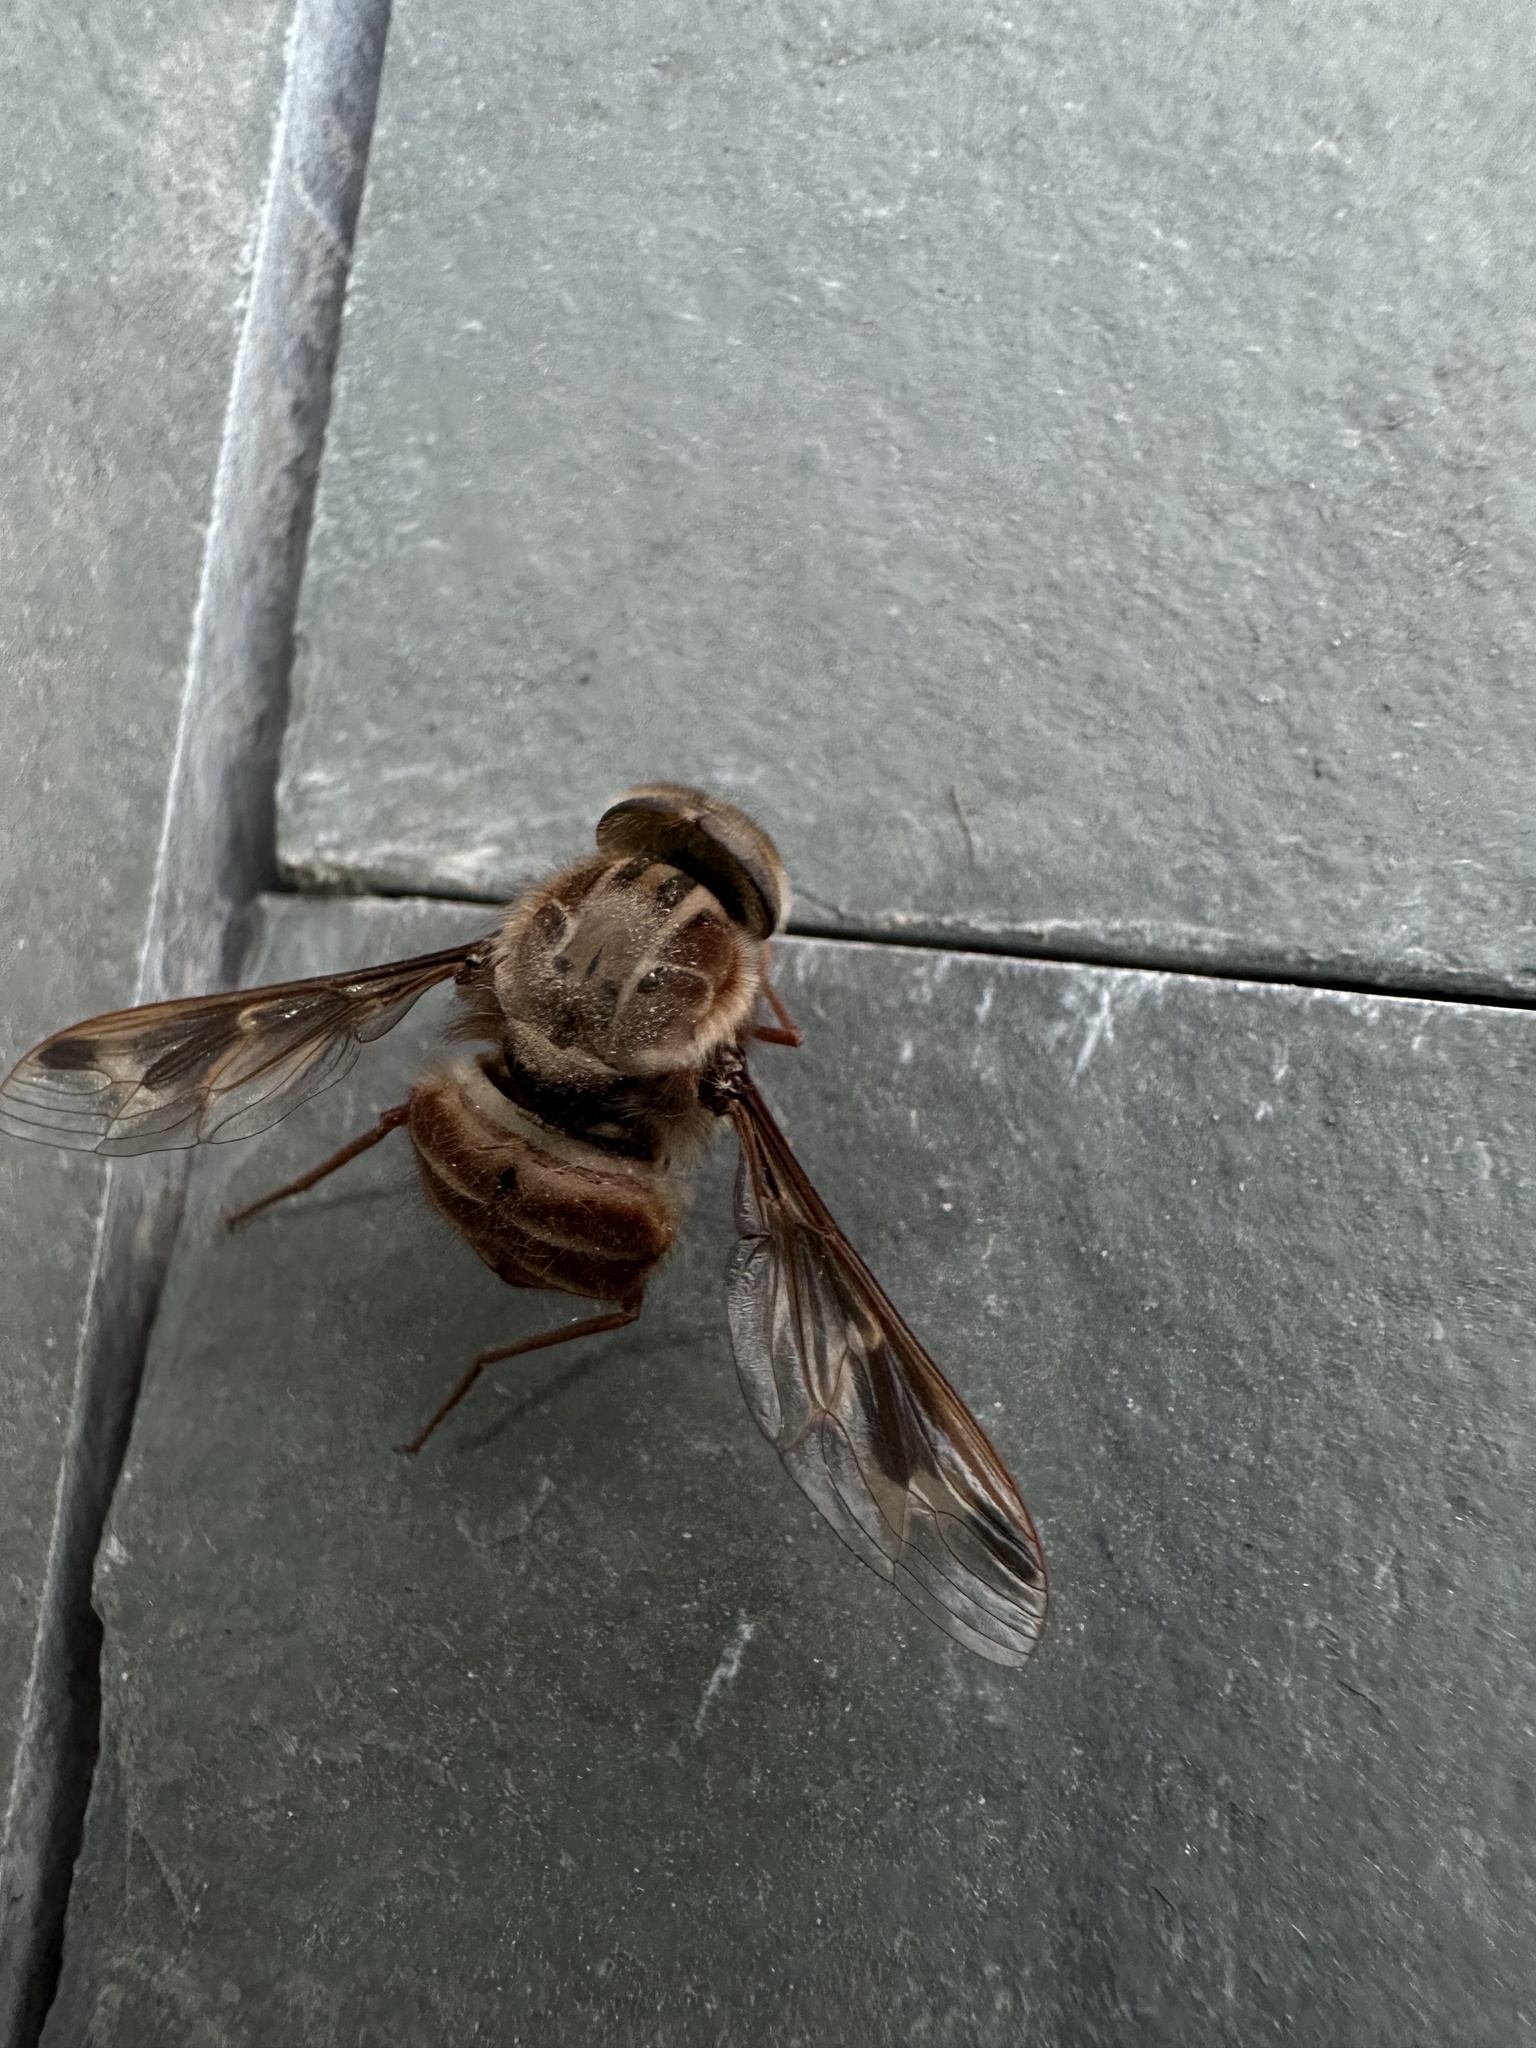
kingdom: Animalia
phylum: Arthropoda
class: Insecta
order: Diptera
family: Nemestrinidae
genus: Trichophthalma
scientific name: Trichophthalma nubipennis
